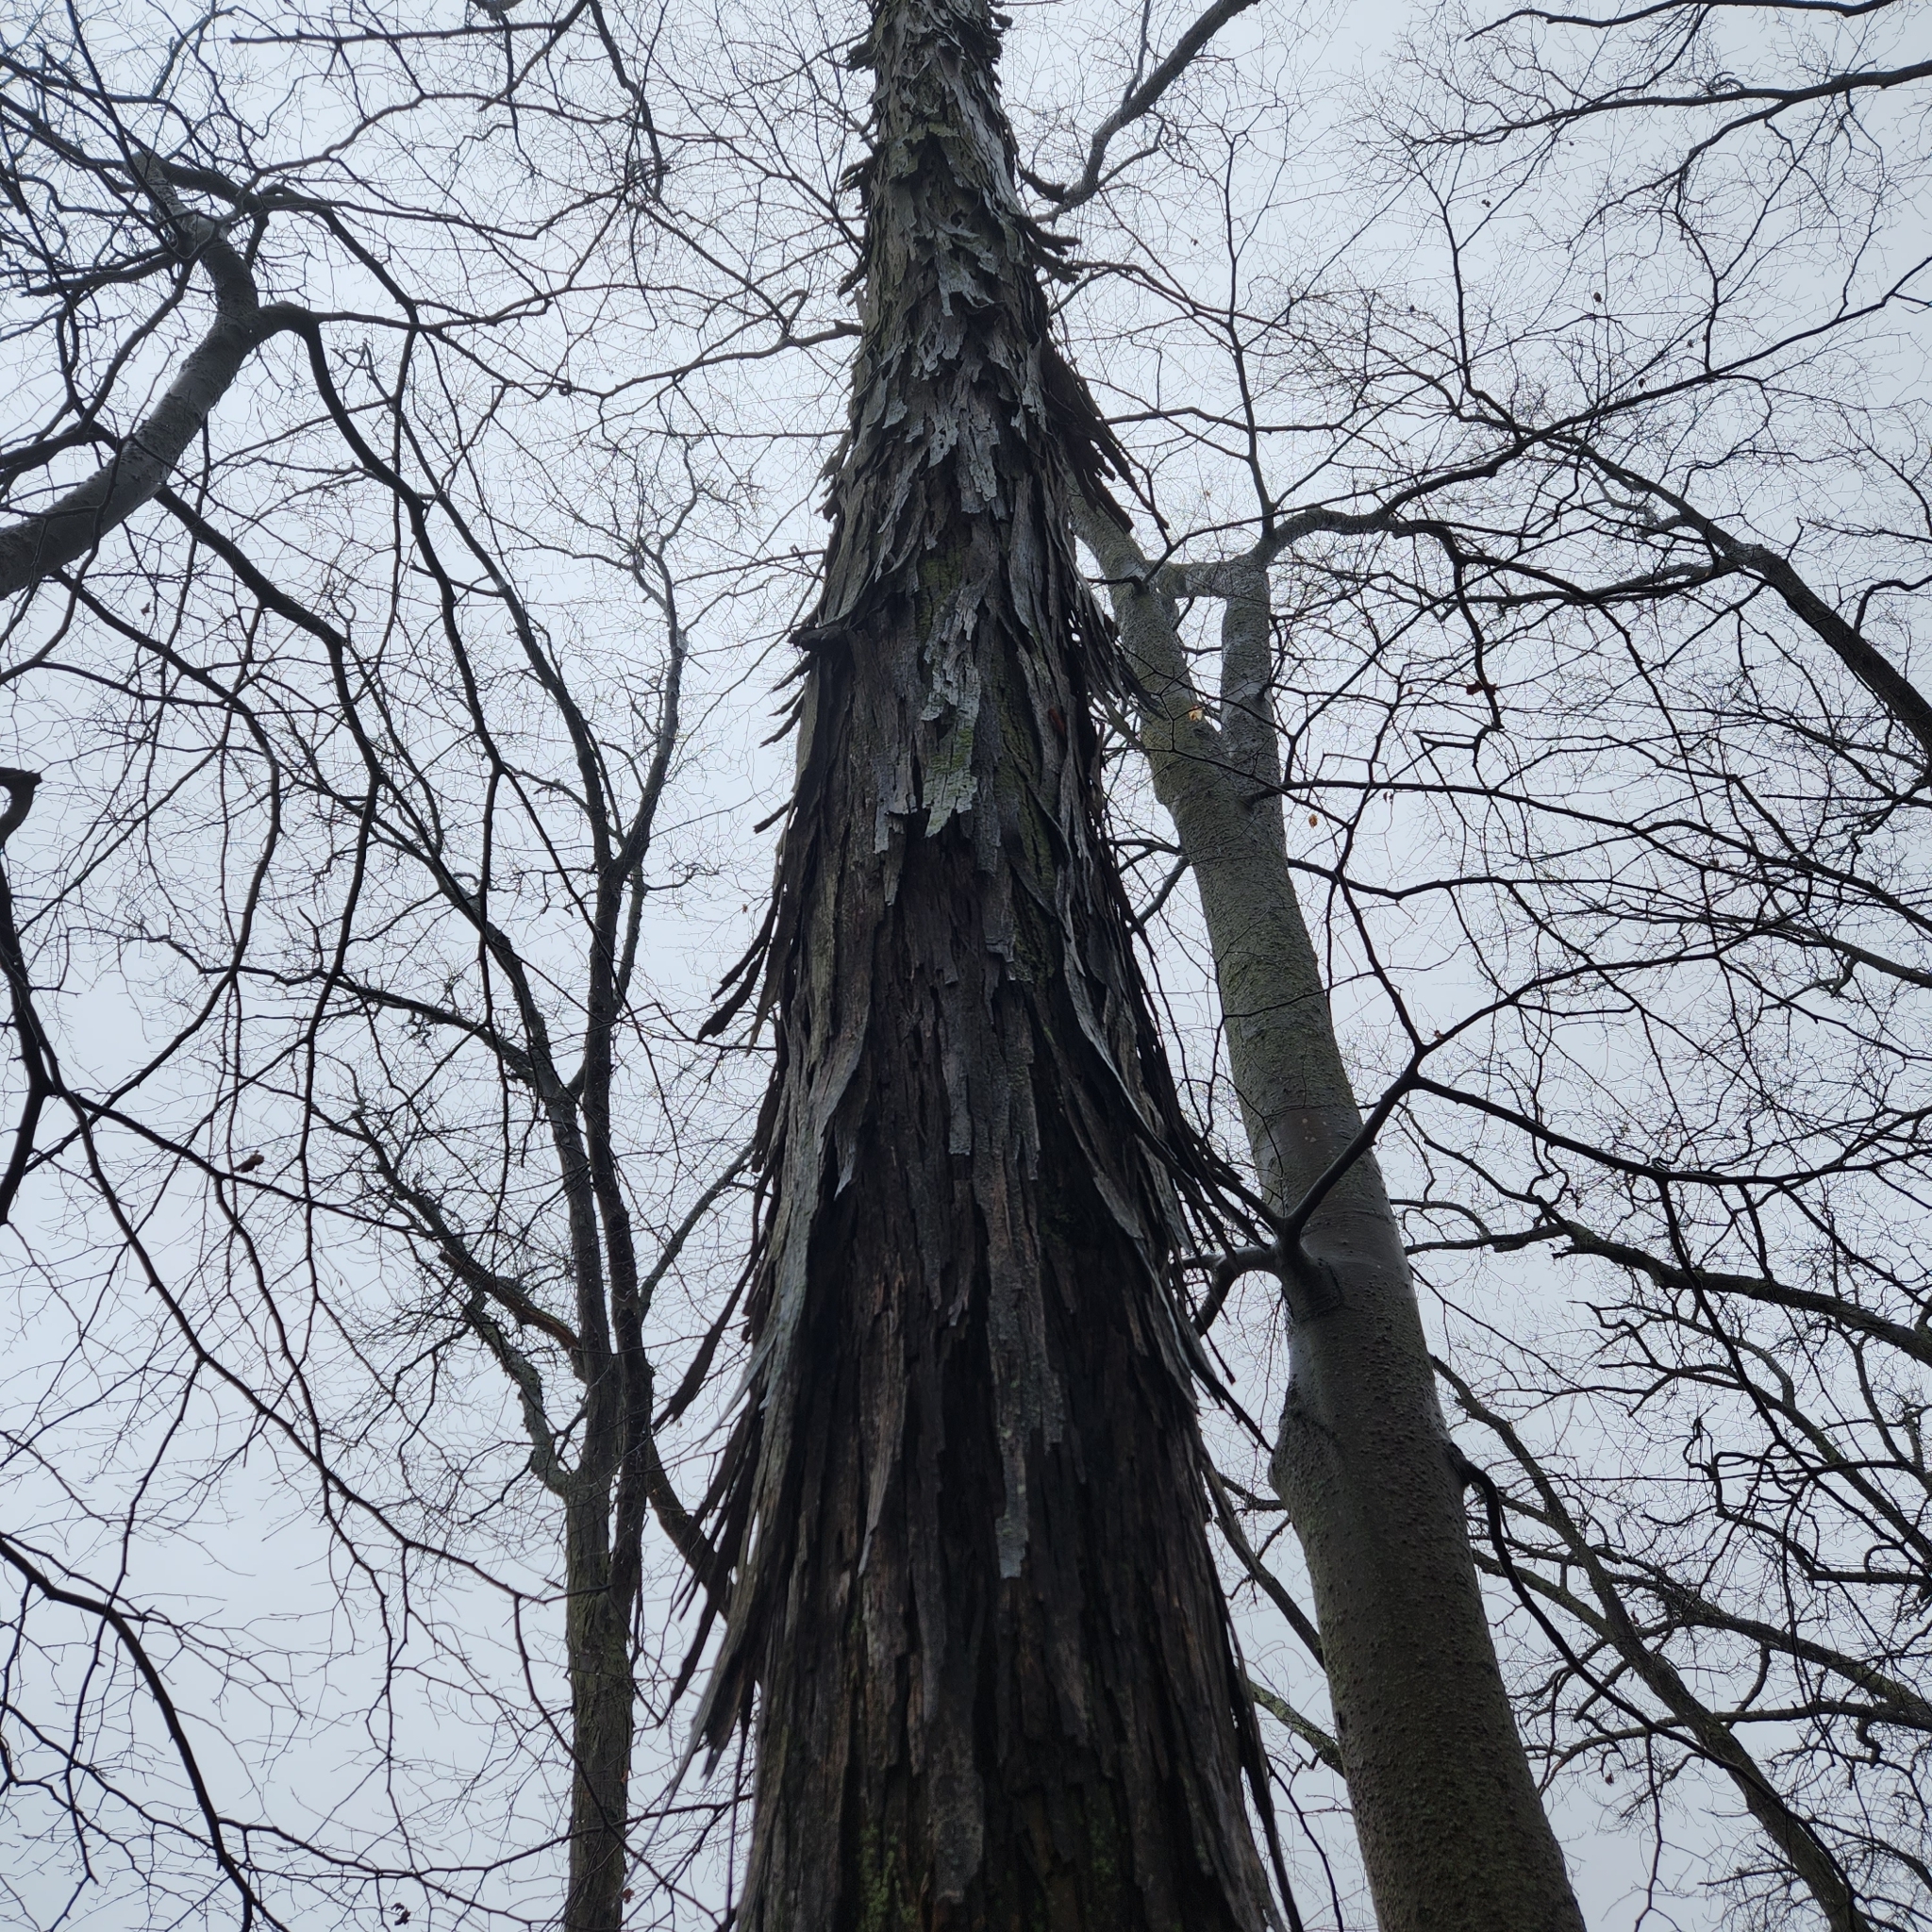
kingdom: Plantae
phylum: Tracheophyta
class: Magnoliopsida
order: Fagales
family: Juglandaceae
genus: Carya
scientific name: Carya ovata
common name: Shagbark hickory
